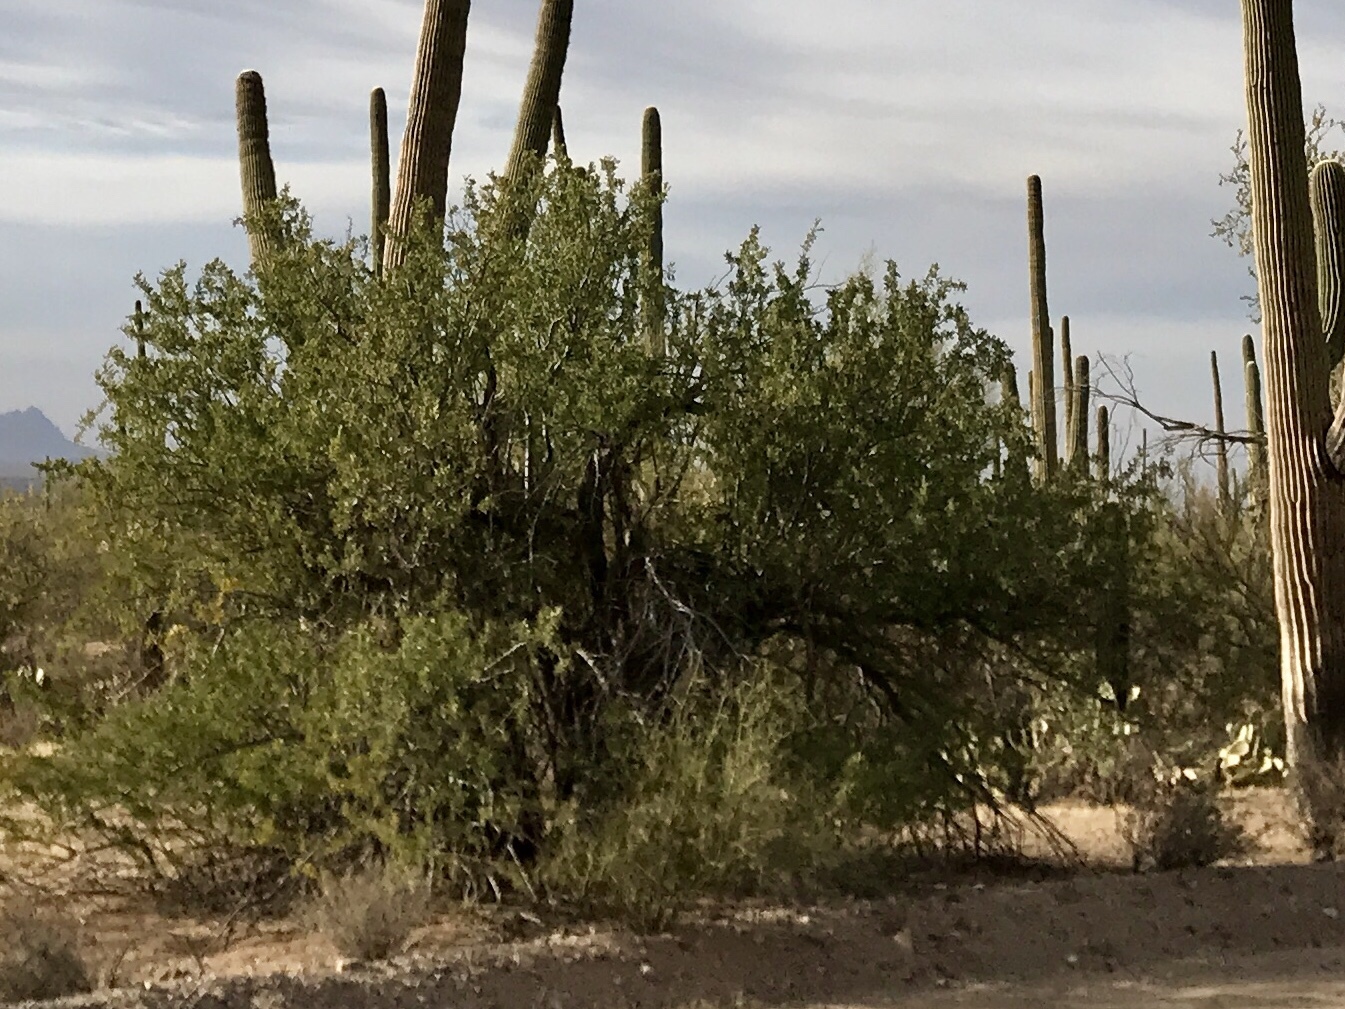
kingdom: Plantae
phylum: Tracheophyta
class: Magnoliopsida
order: Fabales
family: Fabaceae
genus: Olneya
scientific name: Olneya tesota
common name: Desert ironwood
